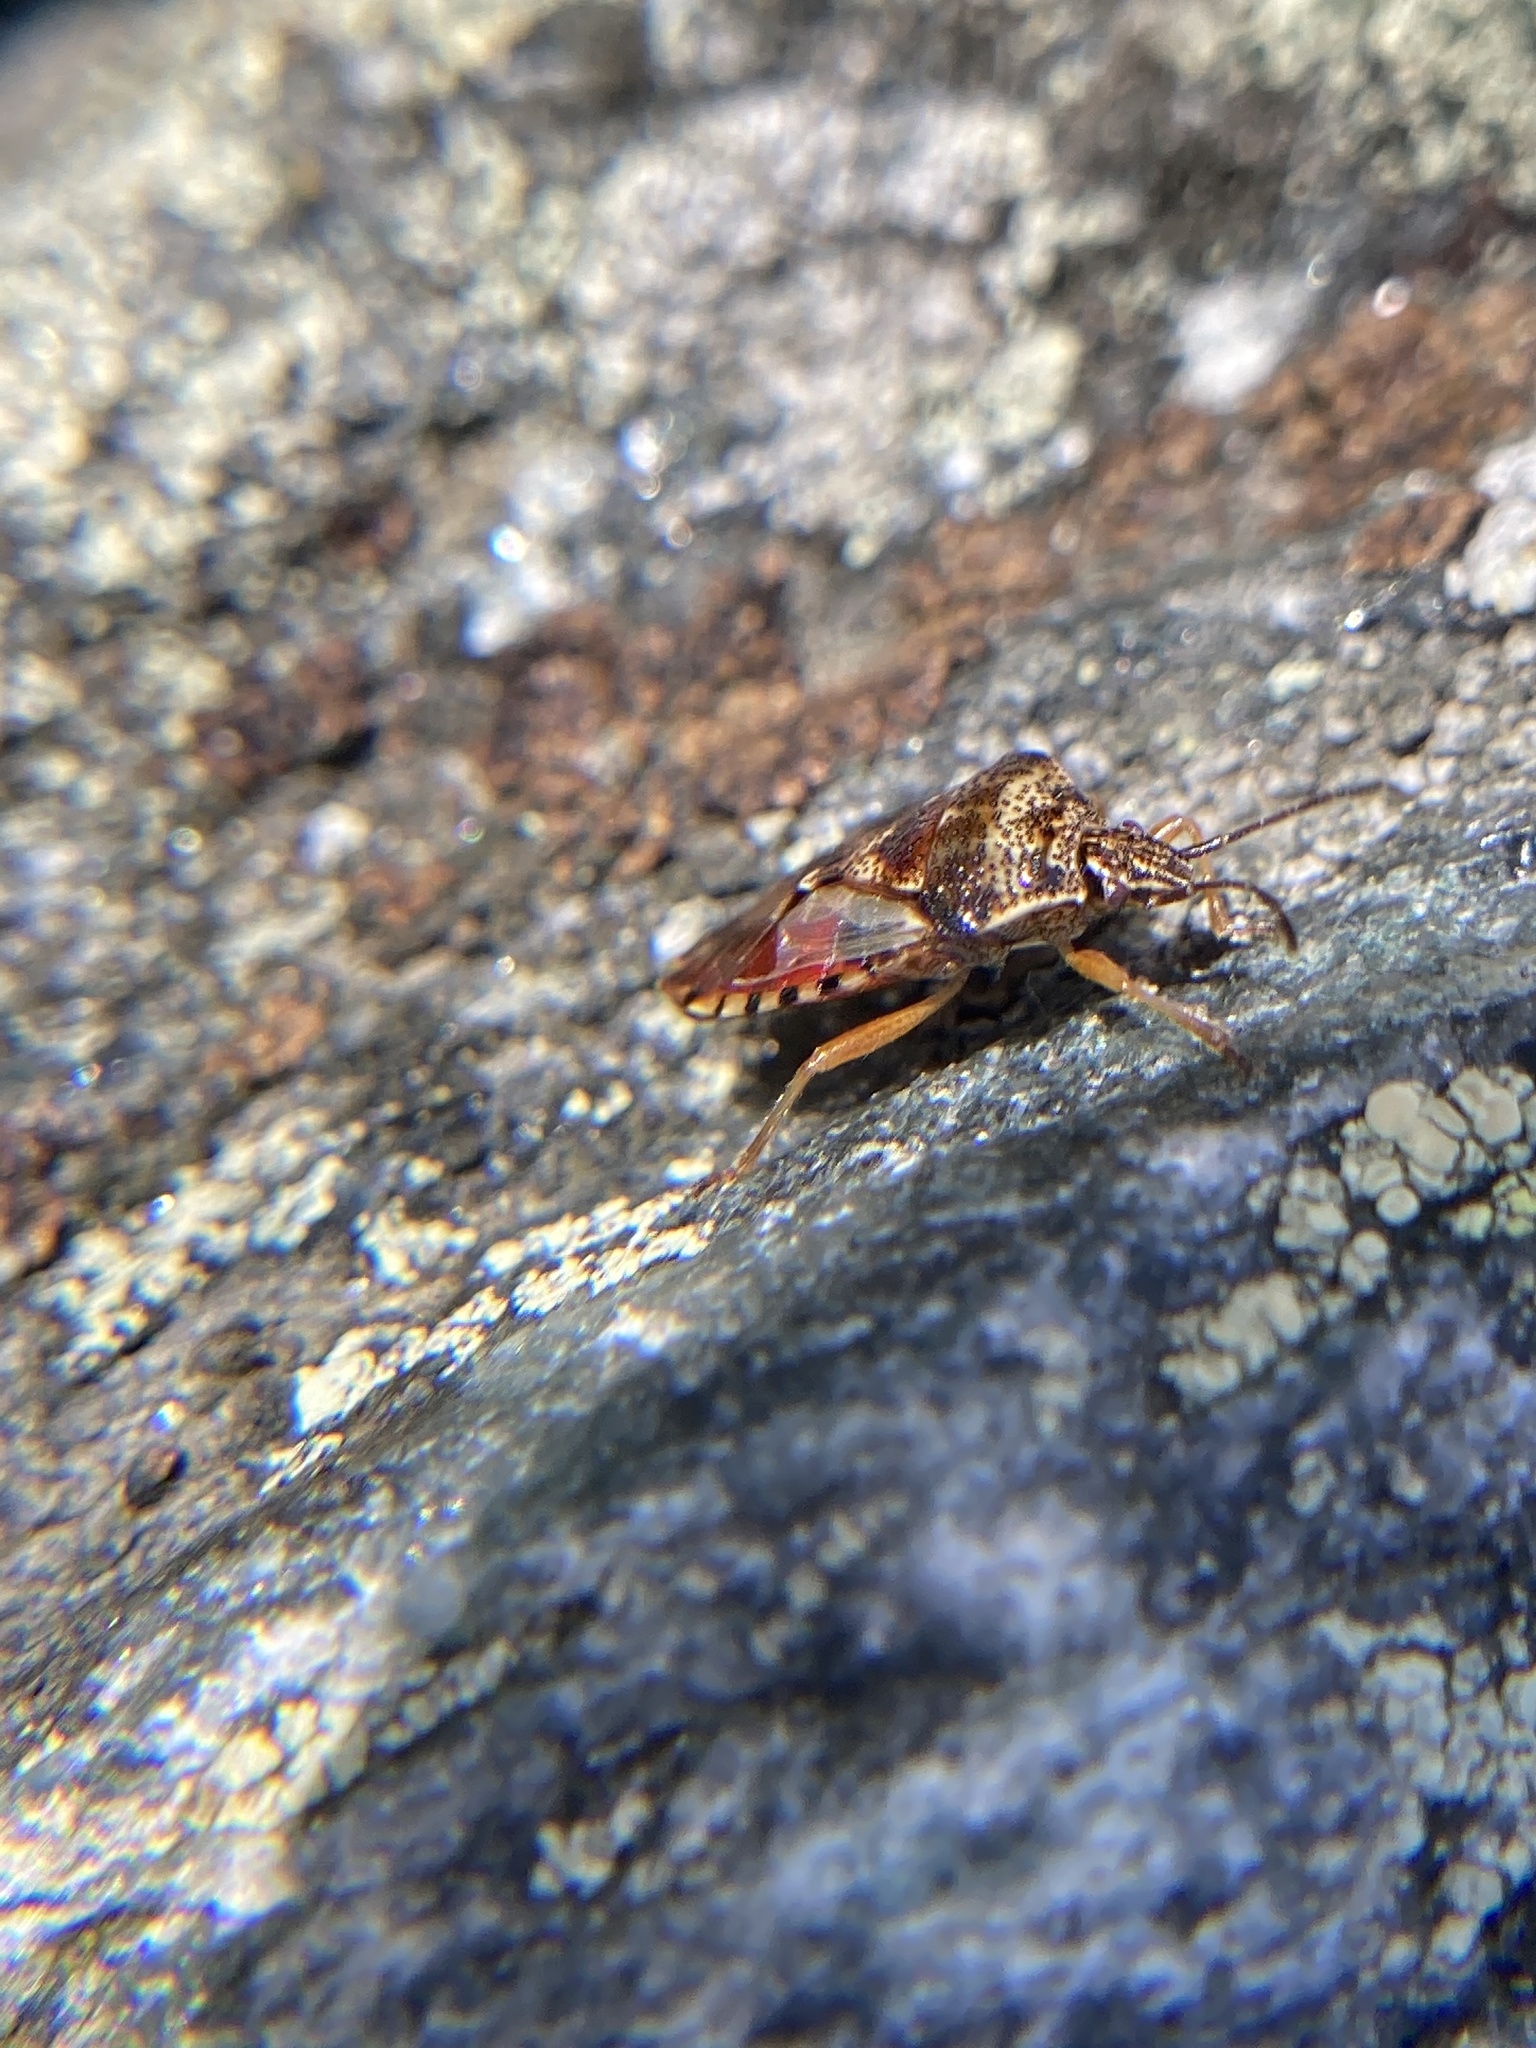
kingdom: Animalia
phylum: Arthropoda
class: Insecta
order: Hemiptera
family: Acanthosomatidae
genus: Elasmucha
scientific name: Elasmucha lateralis
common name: Shield bug
